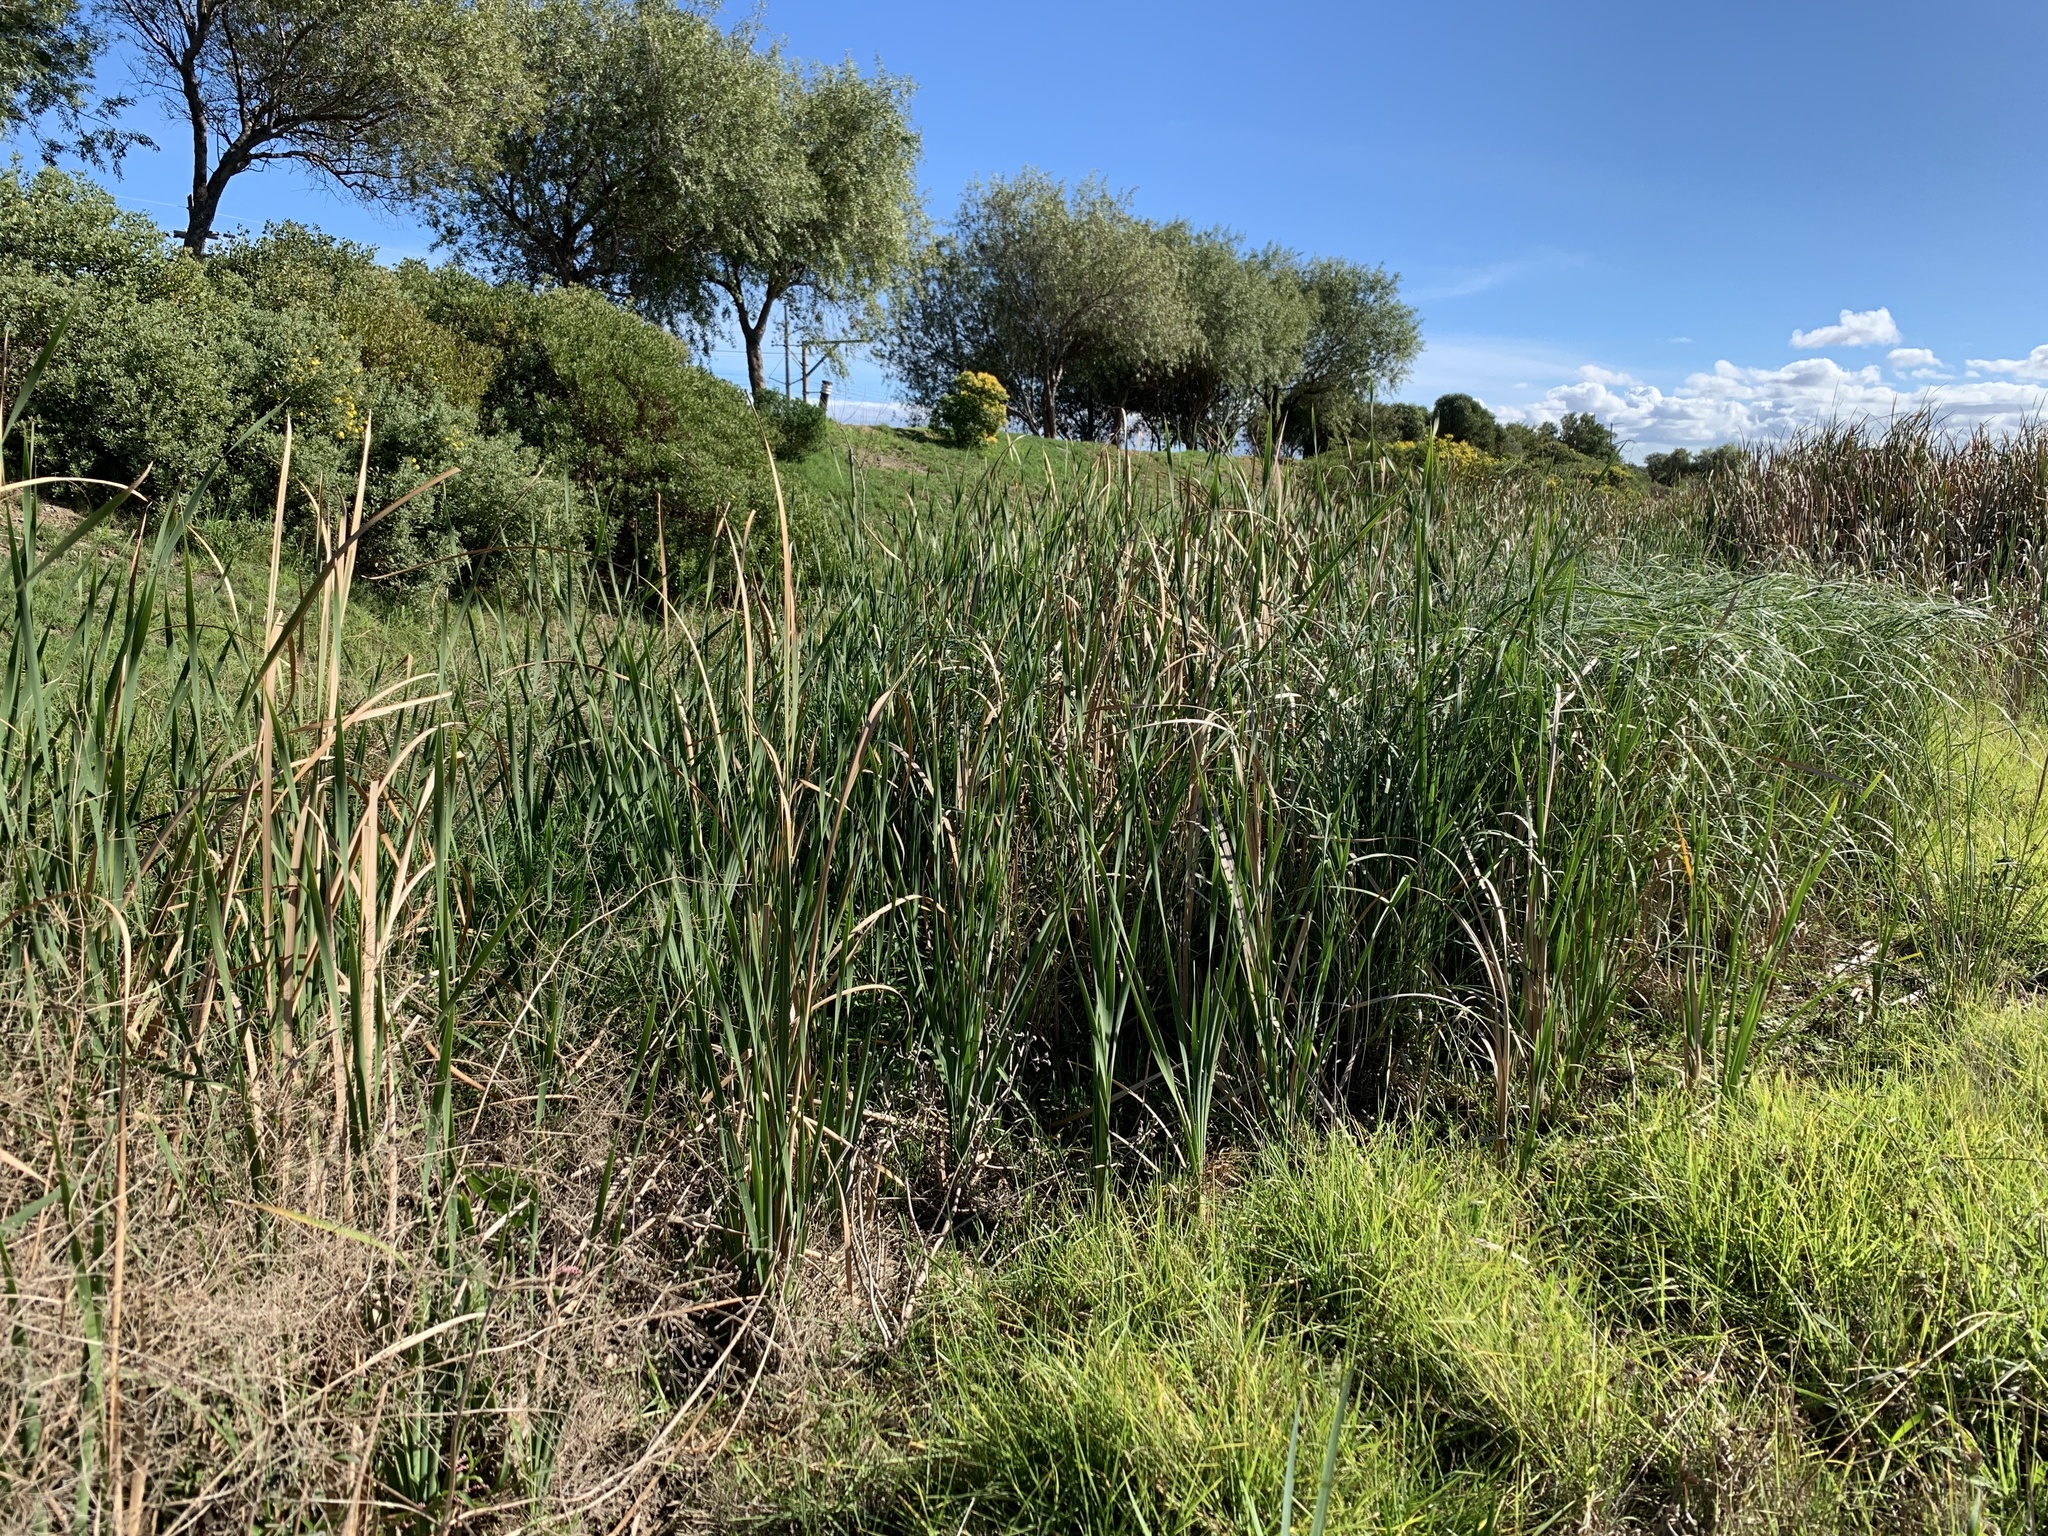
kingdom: Plantae
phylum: Tracheophyta
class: Liliopsida
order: Poales
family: Typhaceae
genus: Typha
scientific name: Typha capensis
